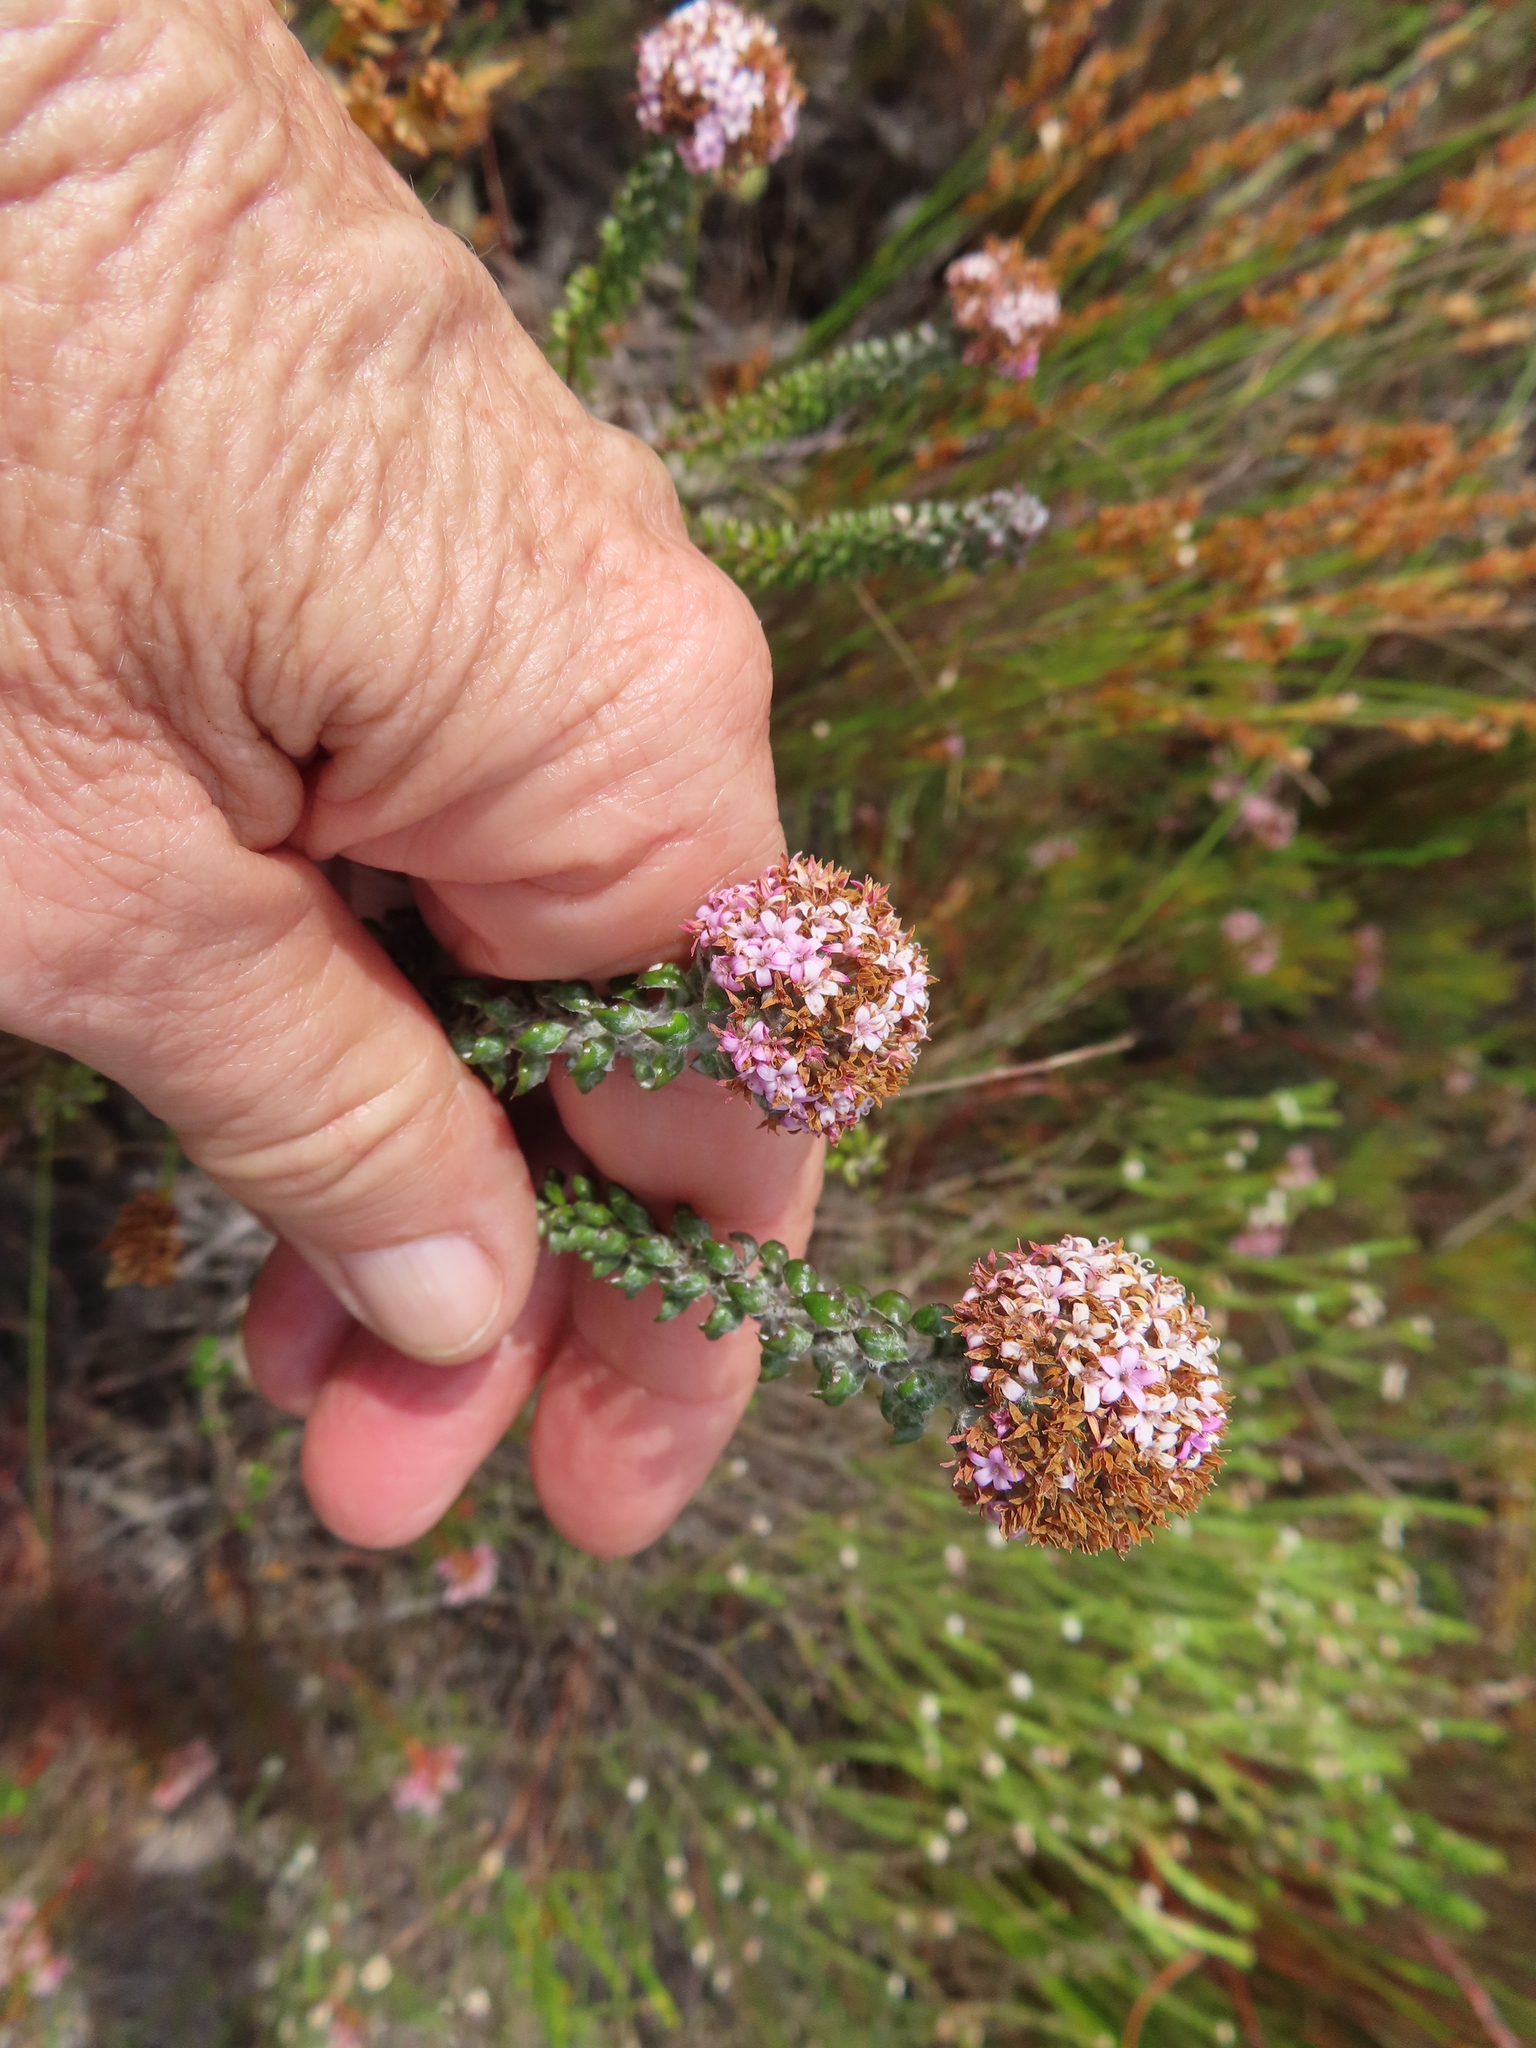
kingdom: Plantae
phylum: Tracheophyta
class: Magnoliopsida
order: Asterales
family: Asteraceae
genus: Stoebe
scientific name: Stoebe cyathuloides
